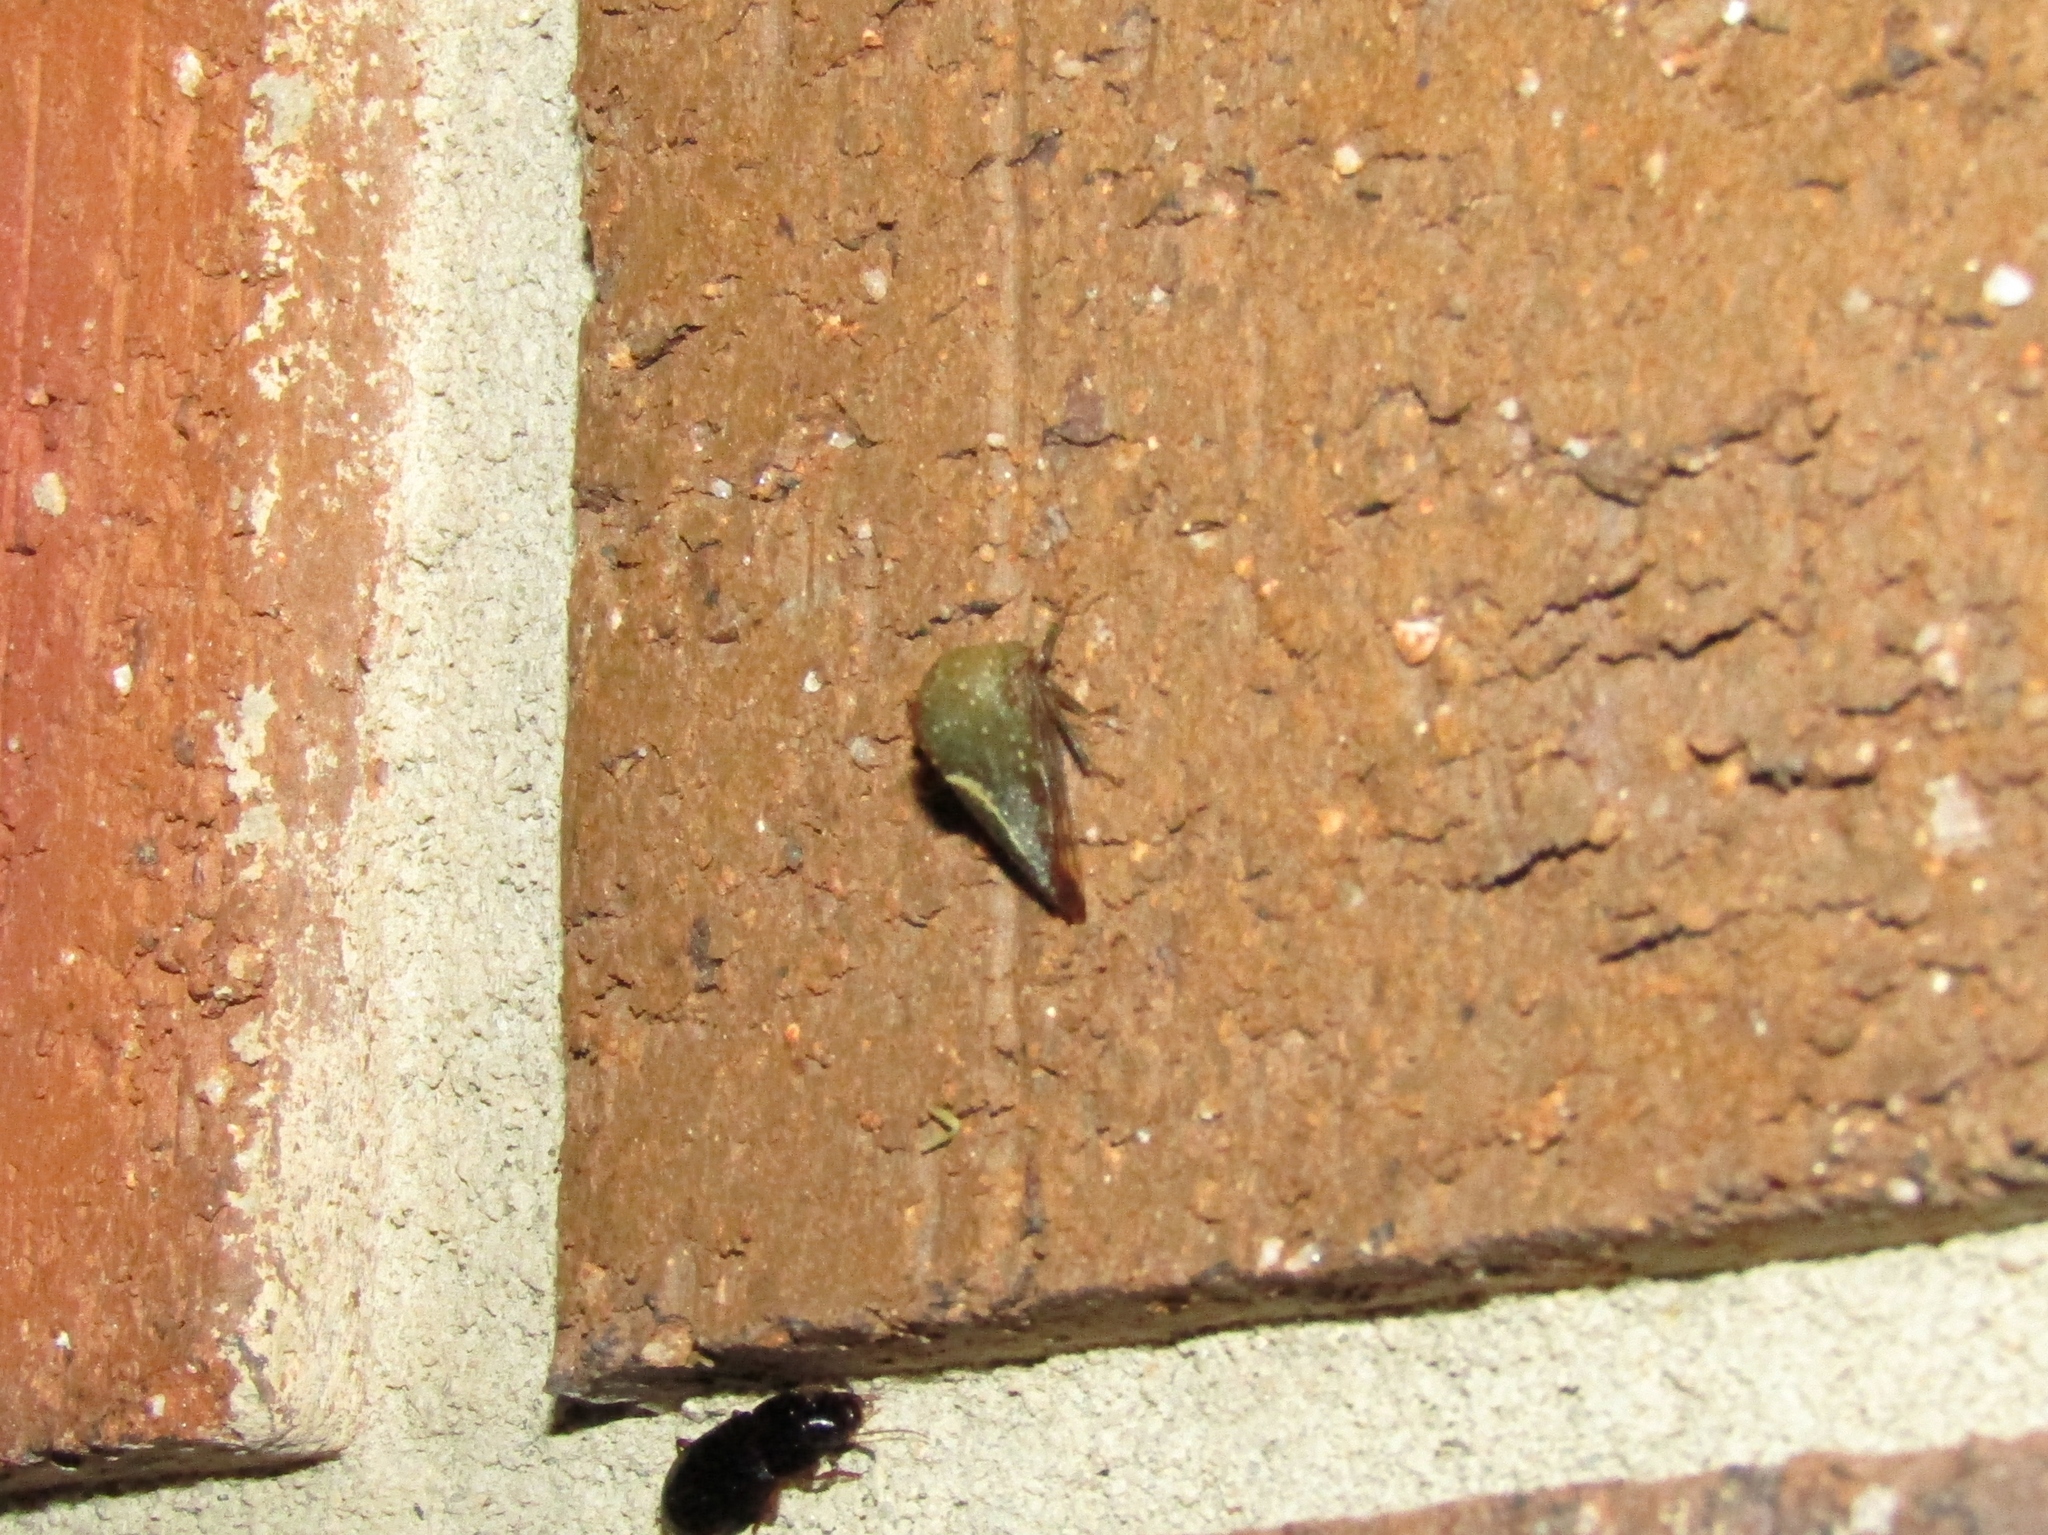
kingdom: Animalia
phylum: Arthropoda
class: Insecta
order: Hemiptera
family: Membracidae
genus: Telamona
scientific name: Telamona monticola
